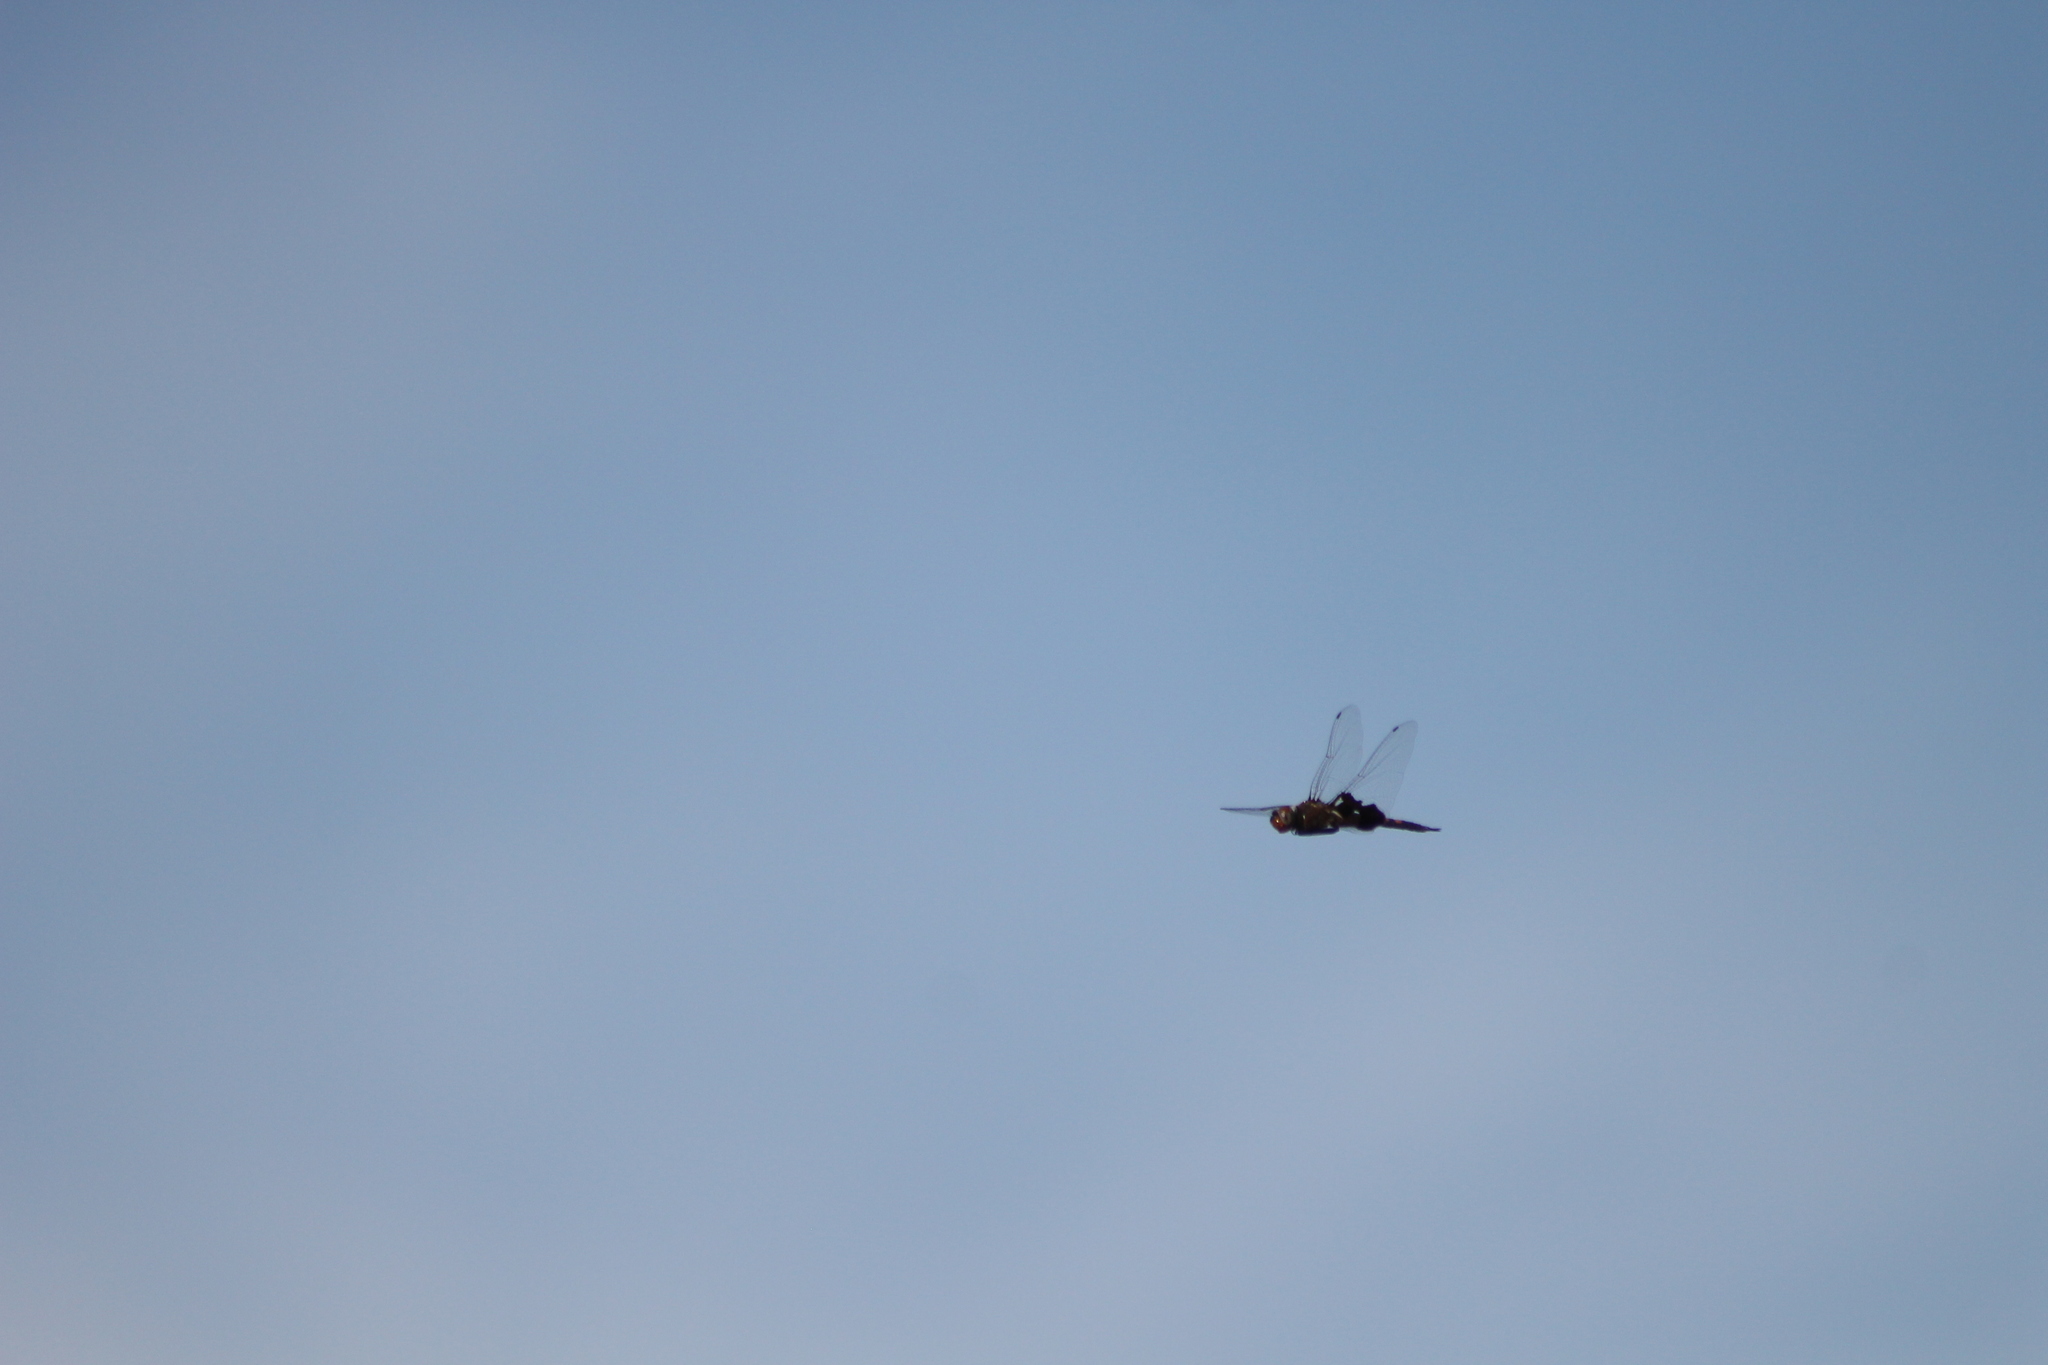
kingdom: Animalia
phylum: Arthropoda
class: Insecta
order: Odonata
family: Libellulidae
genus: Tramea
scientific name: Tramea lacerata
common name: Black saddlebags
